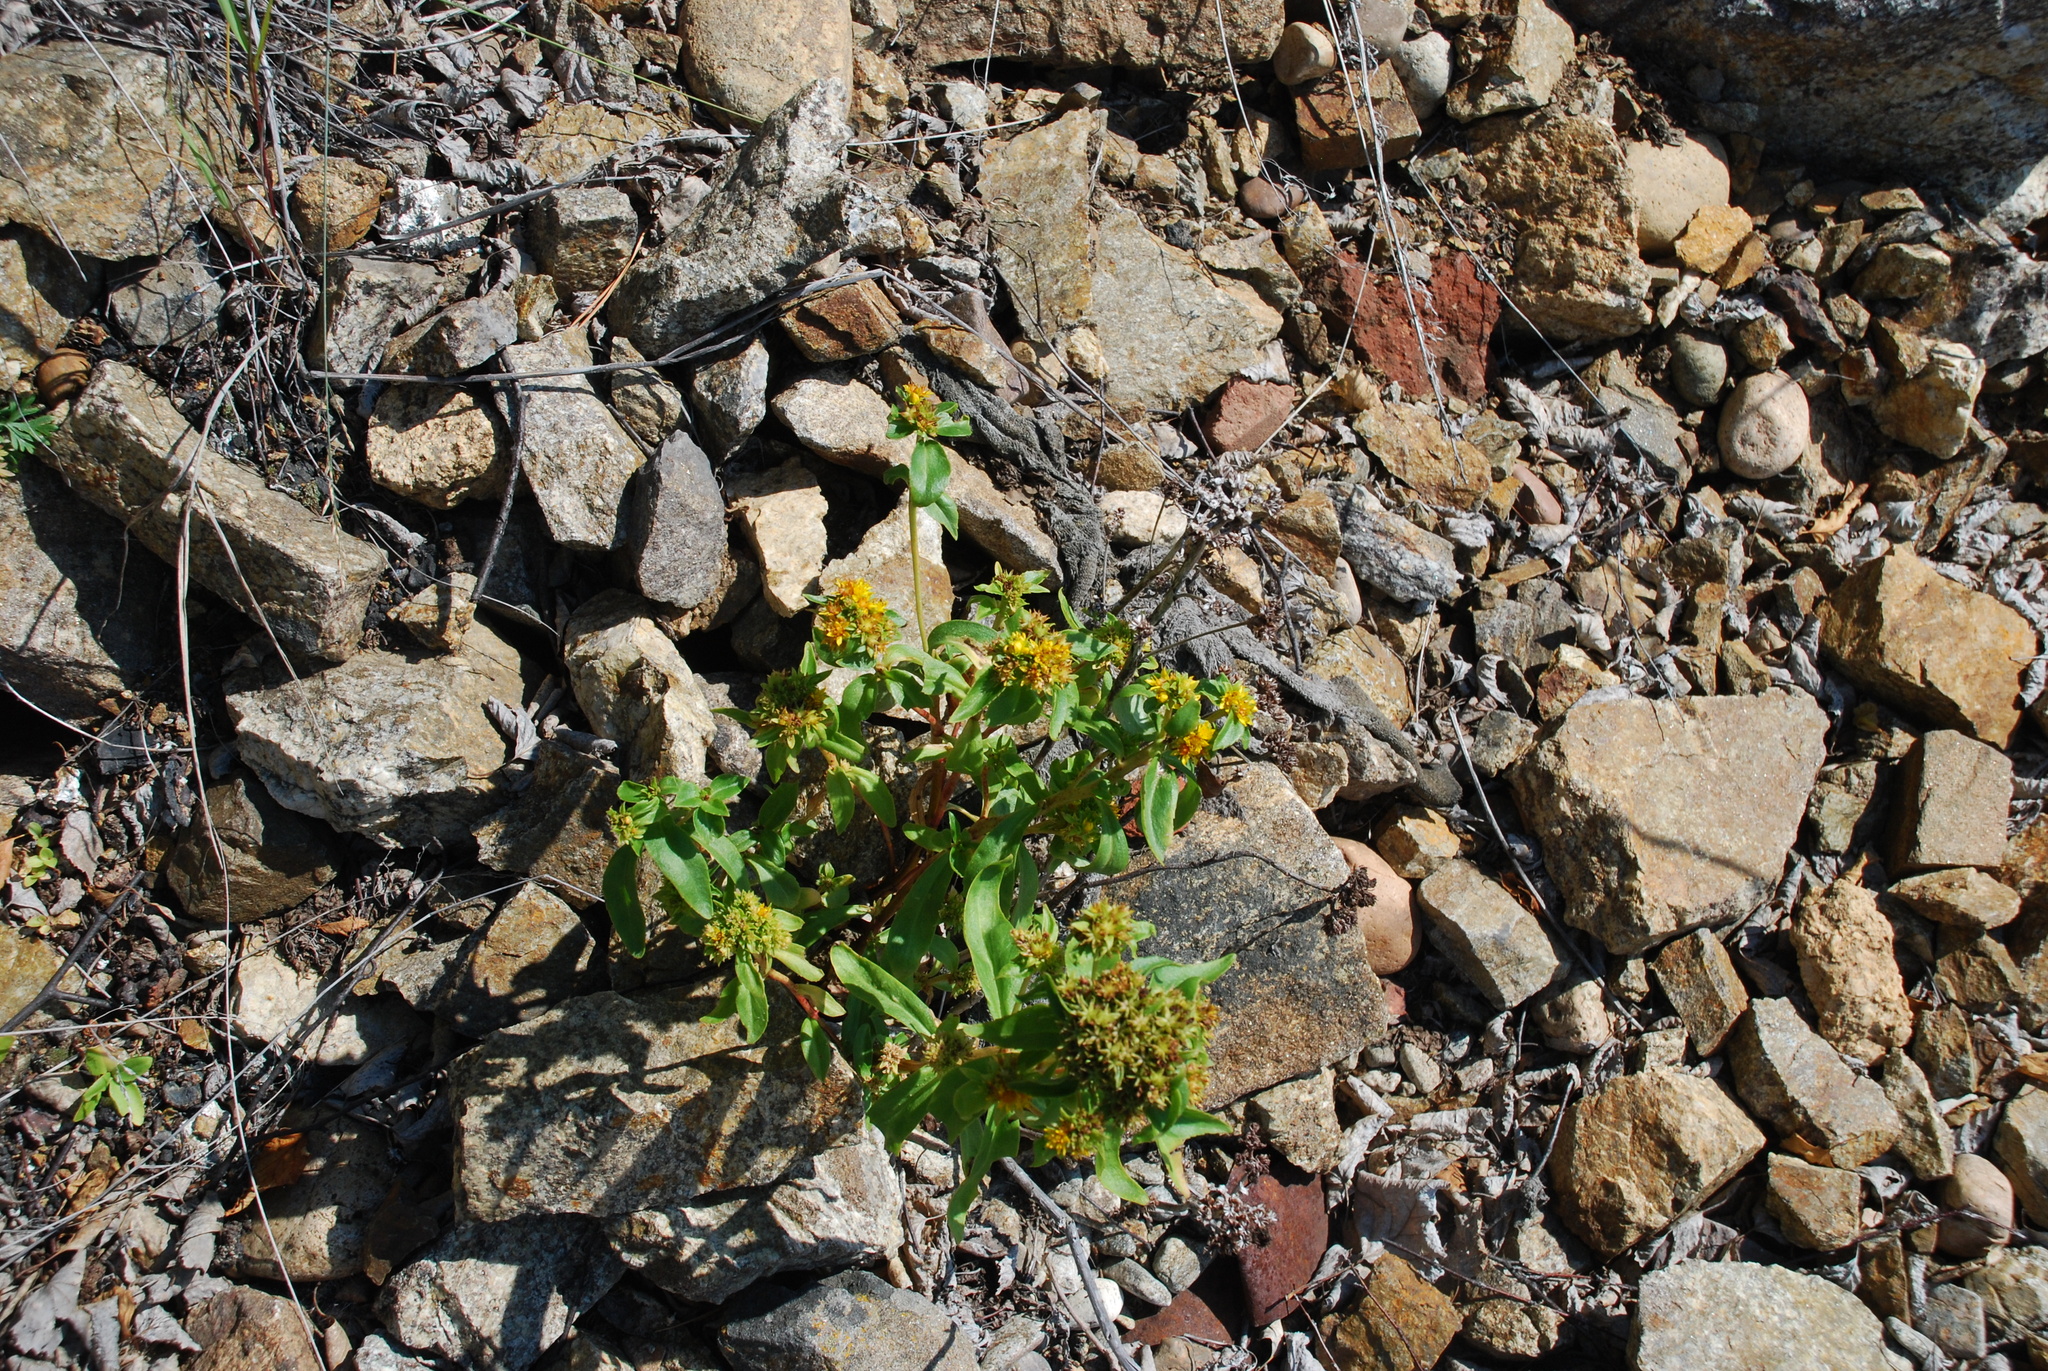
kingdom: Plantae
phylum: Tracheophyta
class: Magnoliopsida
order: Saxifragales
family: Crassulaceae
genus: Phedimus
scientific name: Phedimus aizoon
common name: Orpin aizoon
